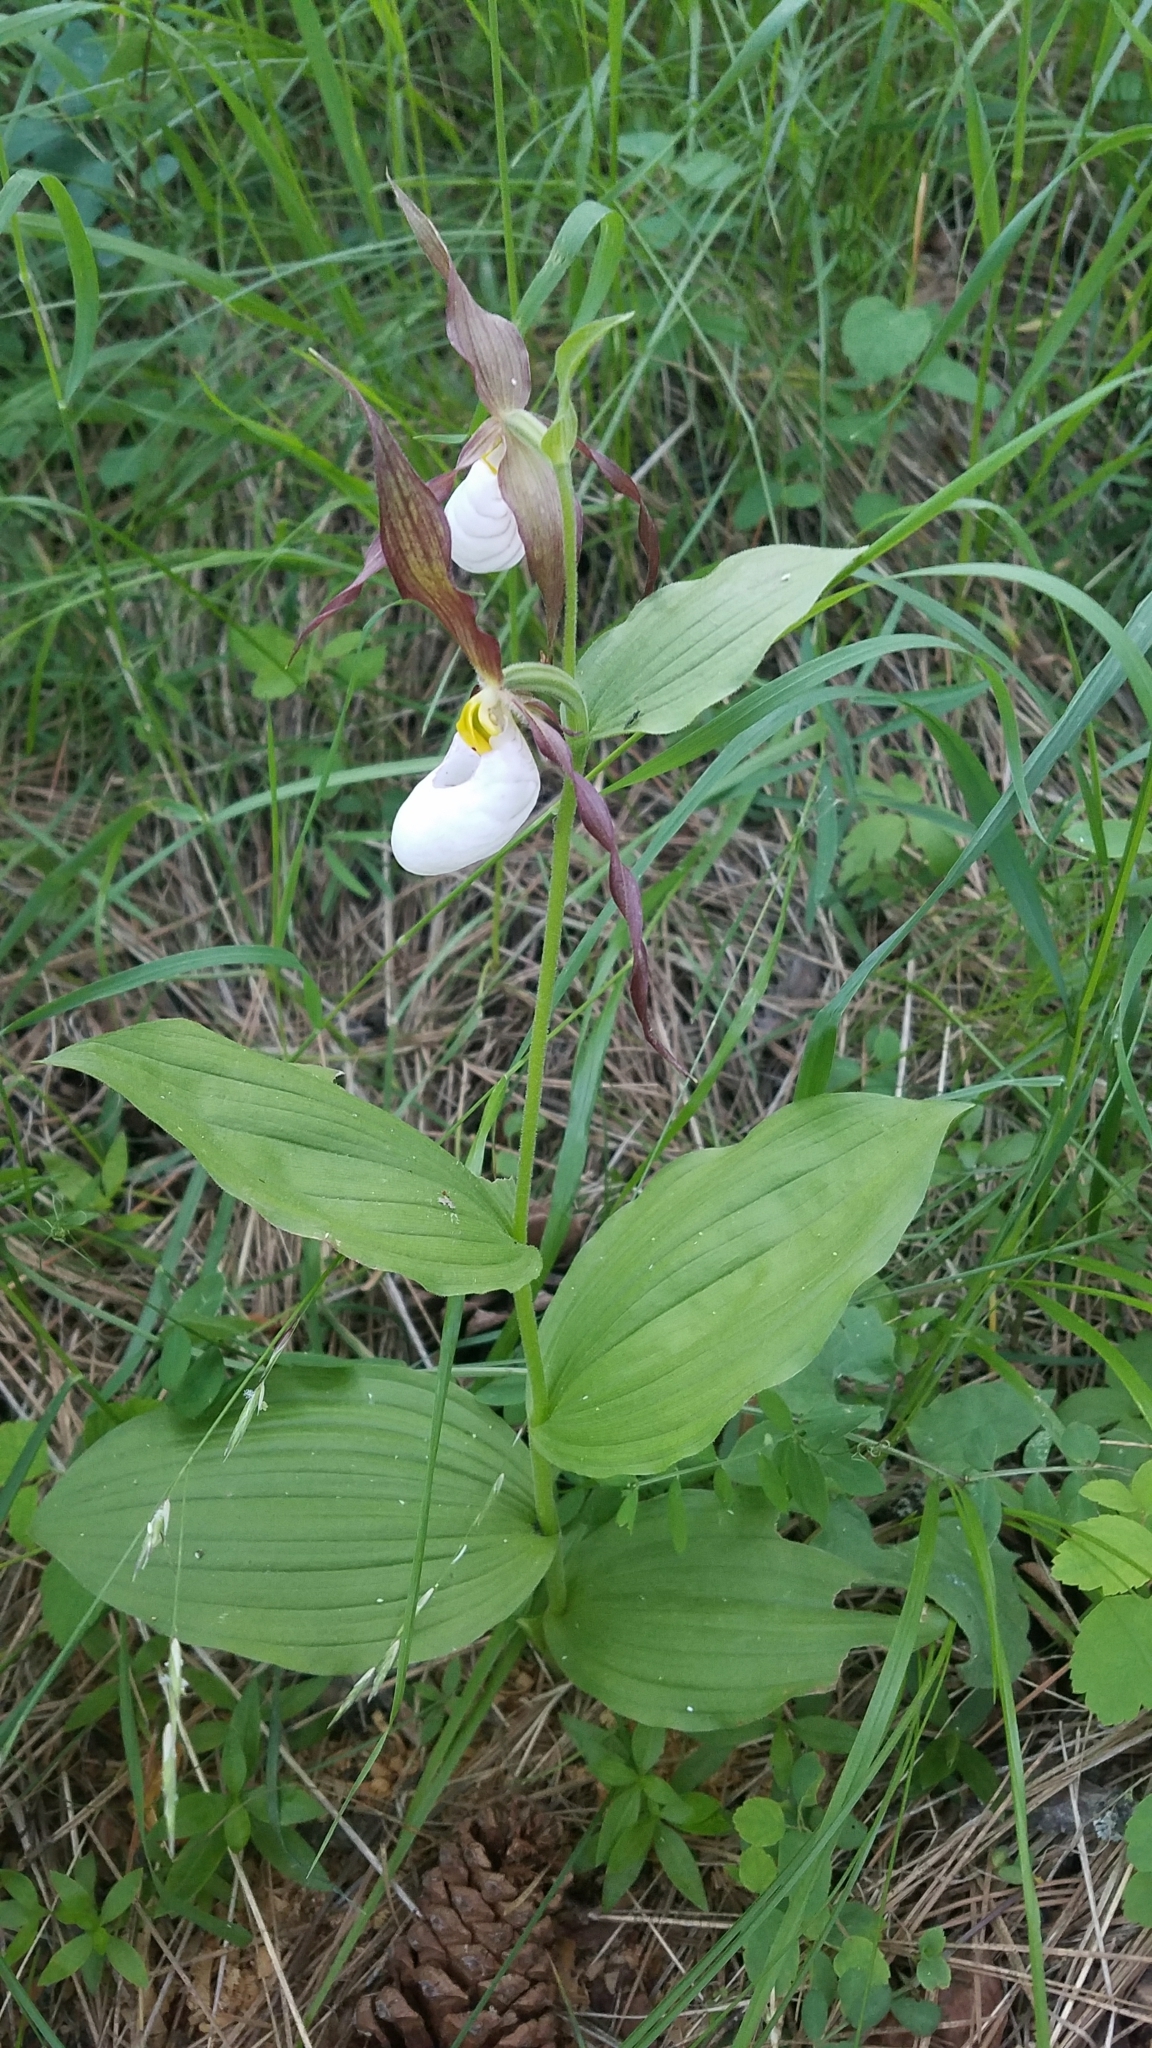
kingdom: Plantae
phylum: Tracheophyta
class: Liliopsida
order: Asparagales
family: Orchidaceae
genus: Cypripedium
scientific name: Cypripedium montanum
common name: Mountain lady's-slipper
